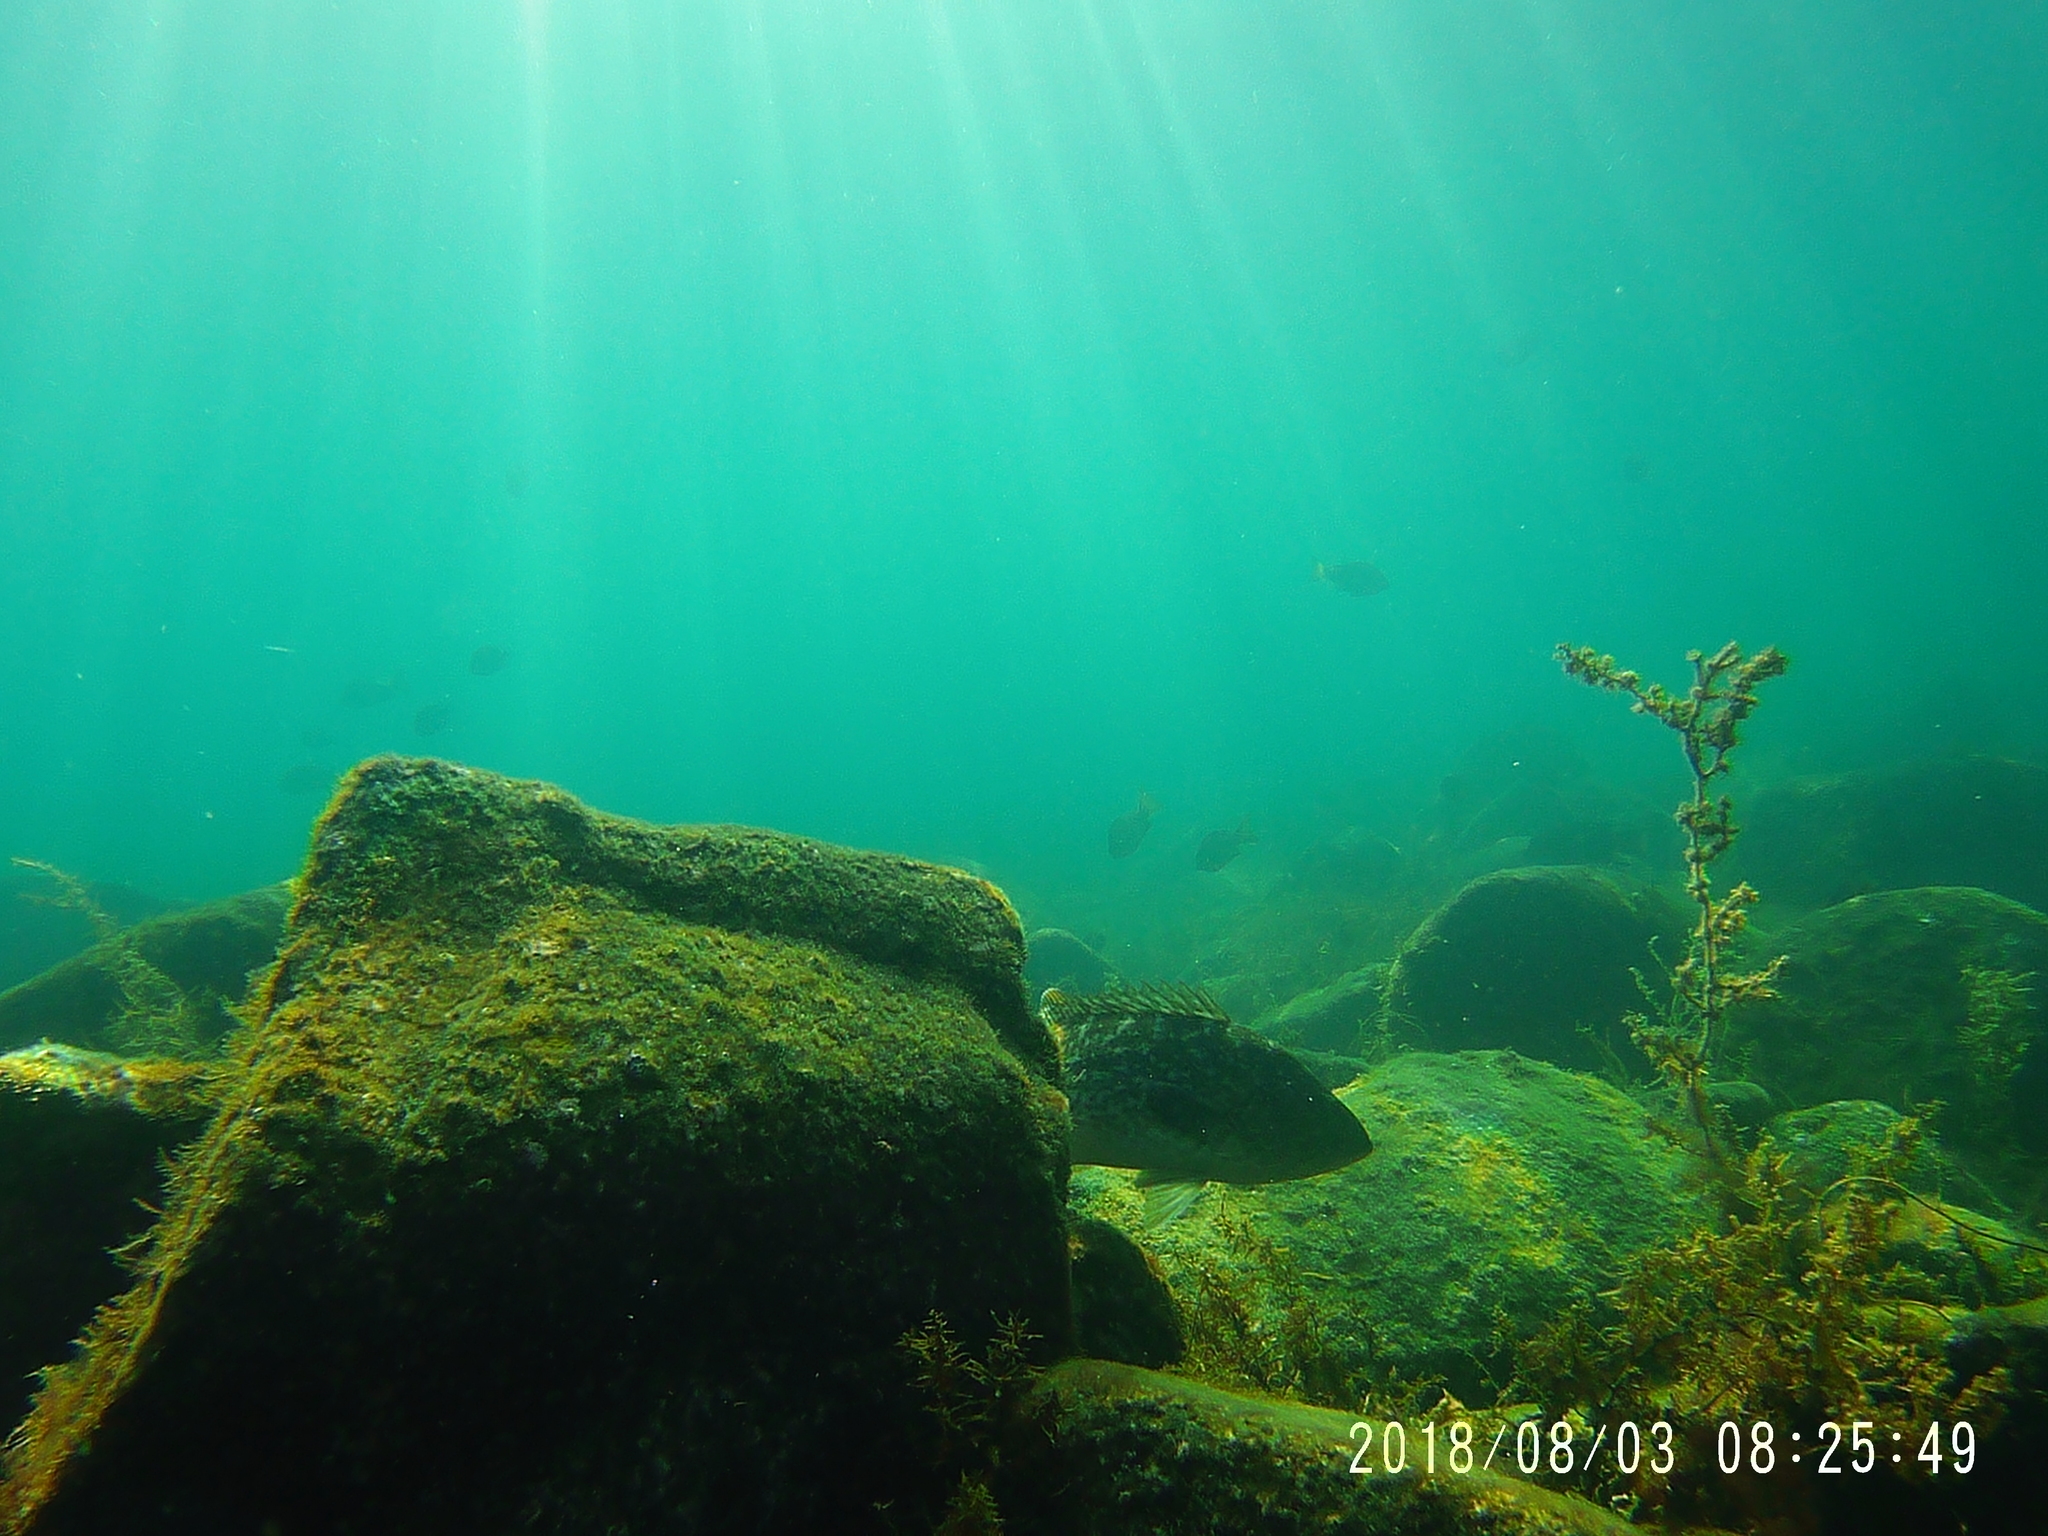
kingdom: Animalia
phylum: Chordata
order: Perciformes
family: Serranidae
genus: Mycteroperca
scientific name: Mycteroperca rosacea
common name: Leopard grouper
